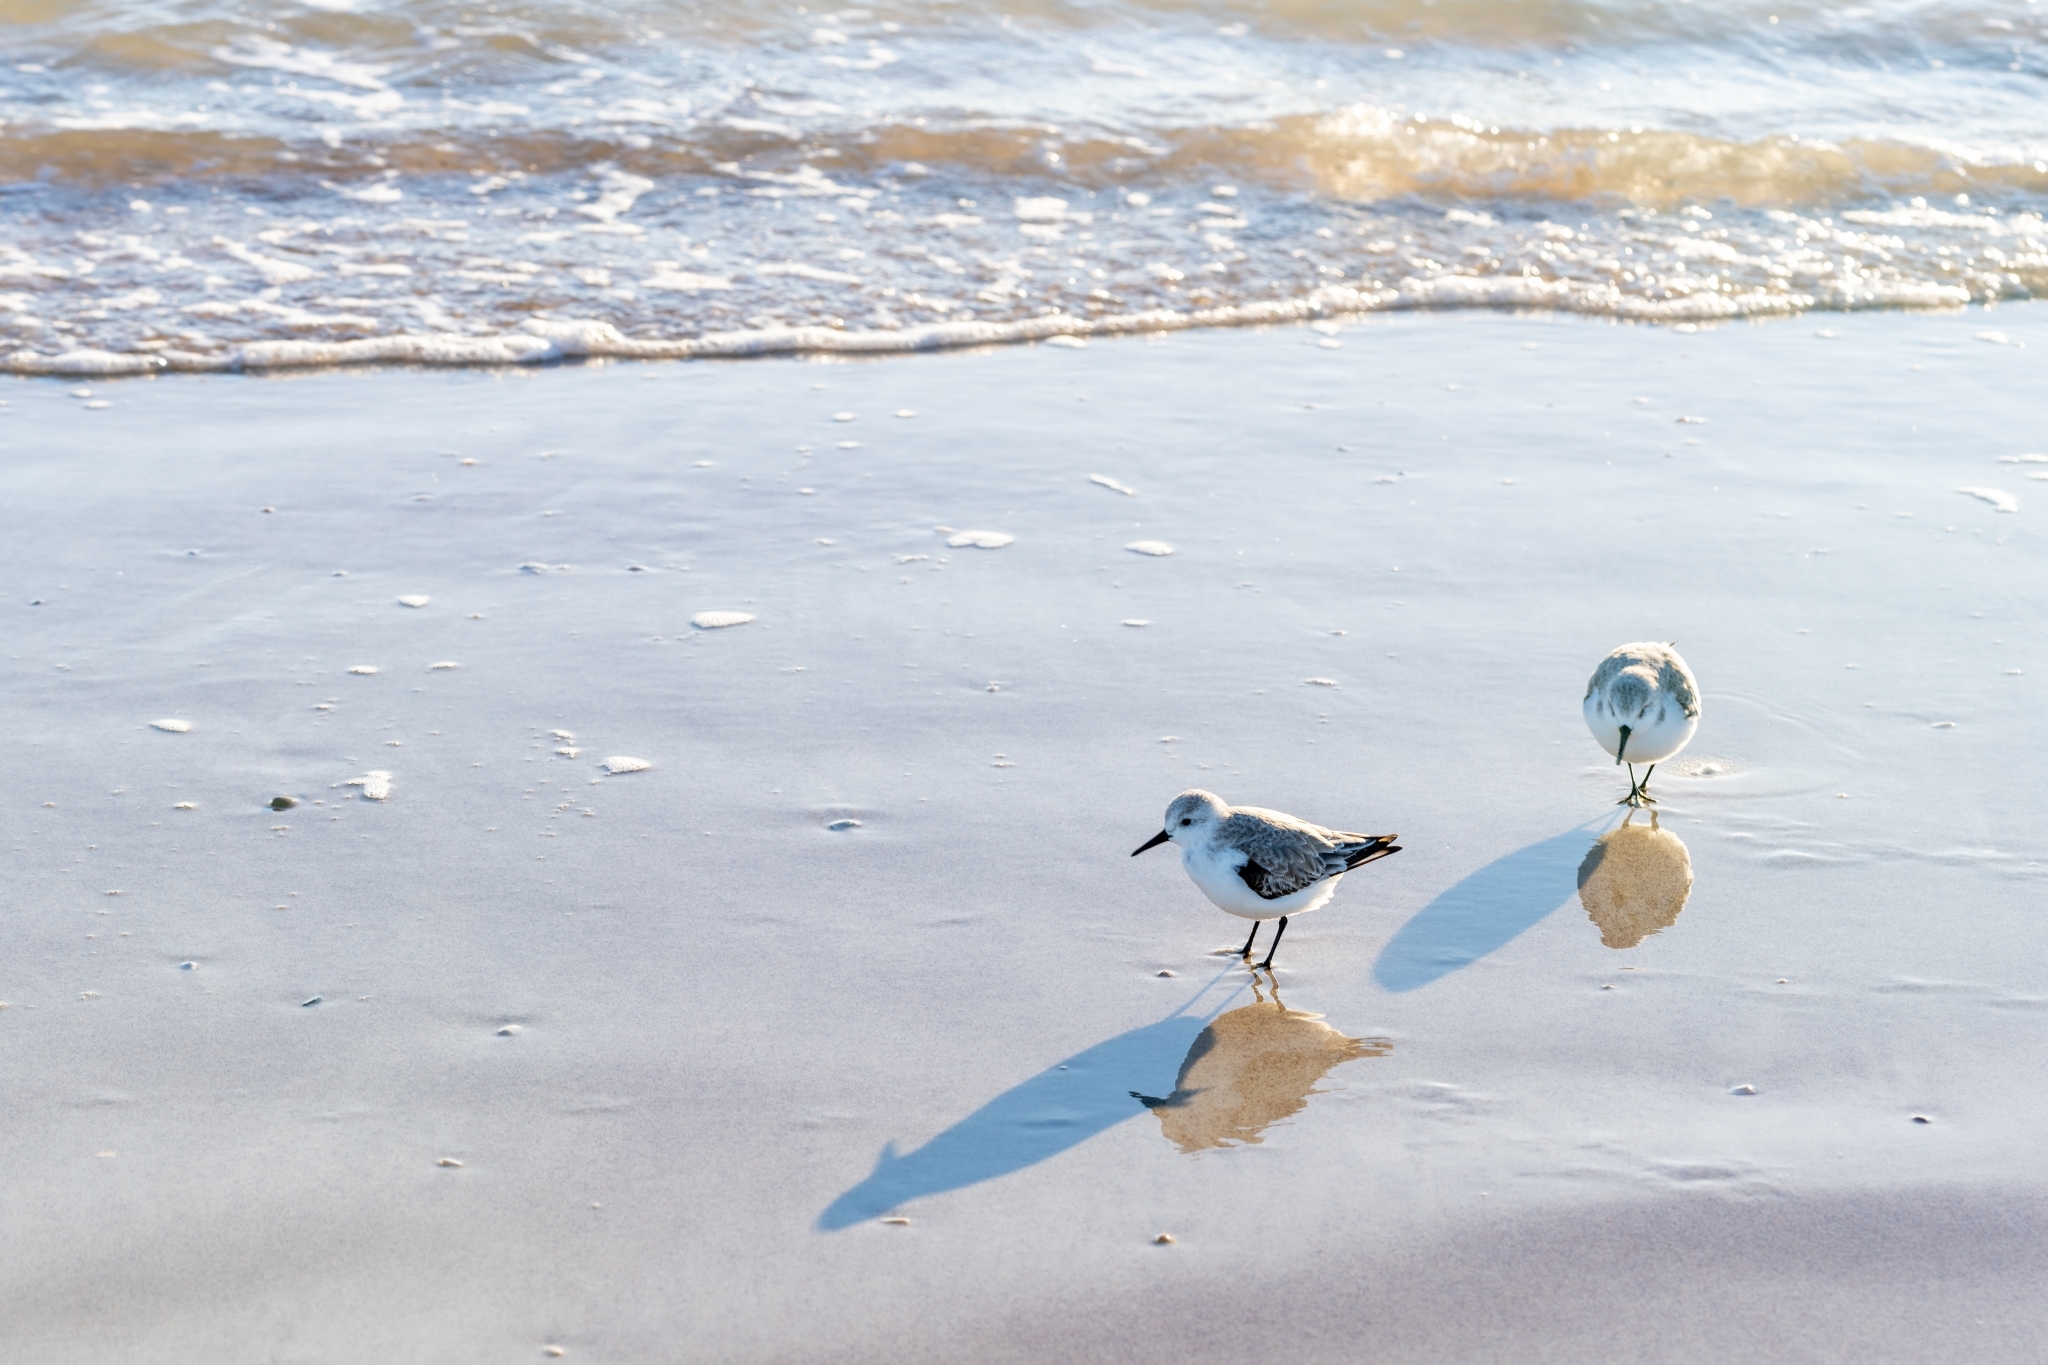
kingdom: Animalia
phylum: Chordata
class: Aves
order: Charadriiformes
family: Scolopacidae
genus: Calidris
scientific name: Calidris alba
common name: Sanderling
